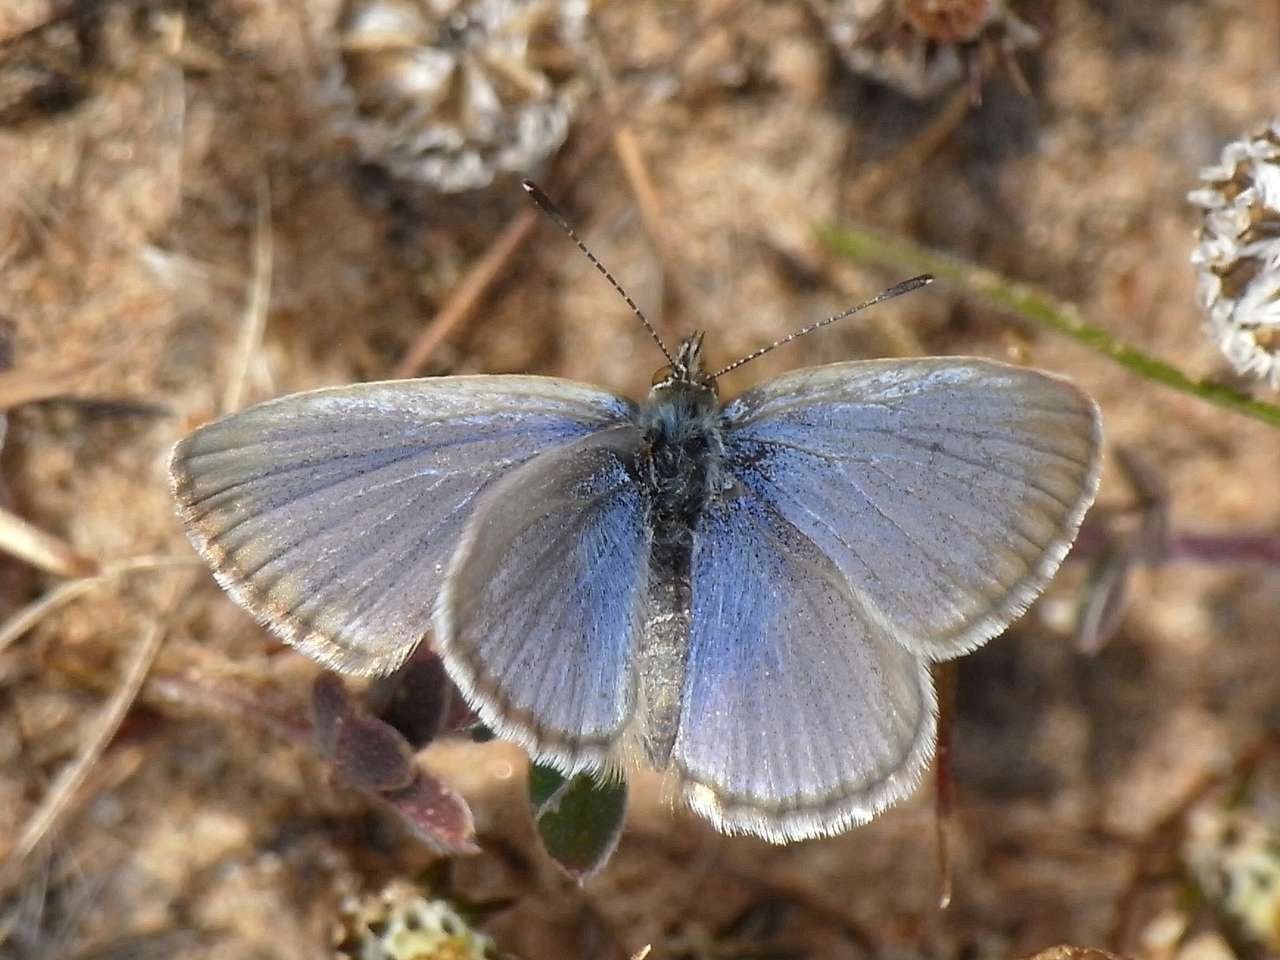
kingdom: Animalia
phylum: Arthropoda
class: Insecta
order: Lepidoptera
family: Lycaenidae
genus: Zizina
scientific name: Zizina labradus
